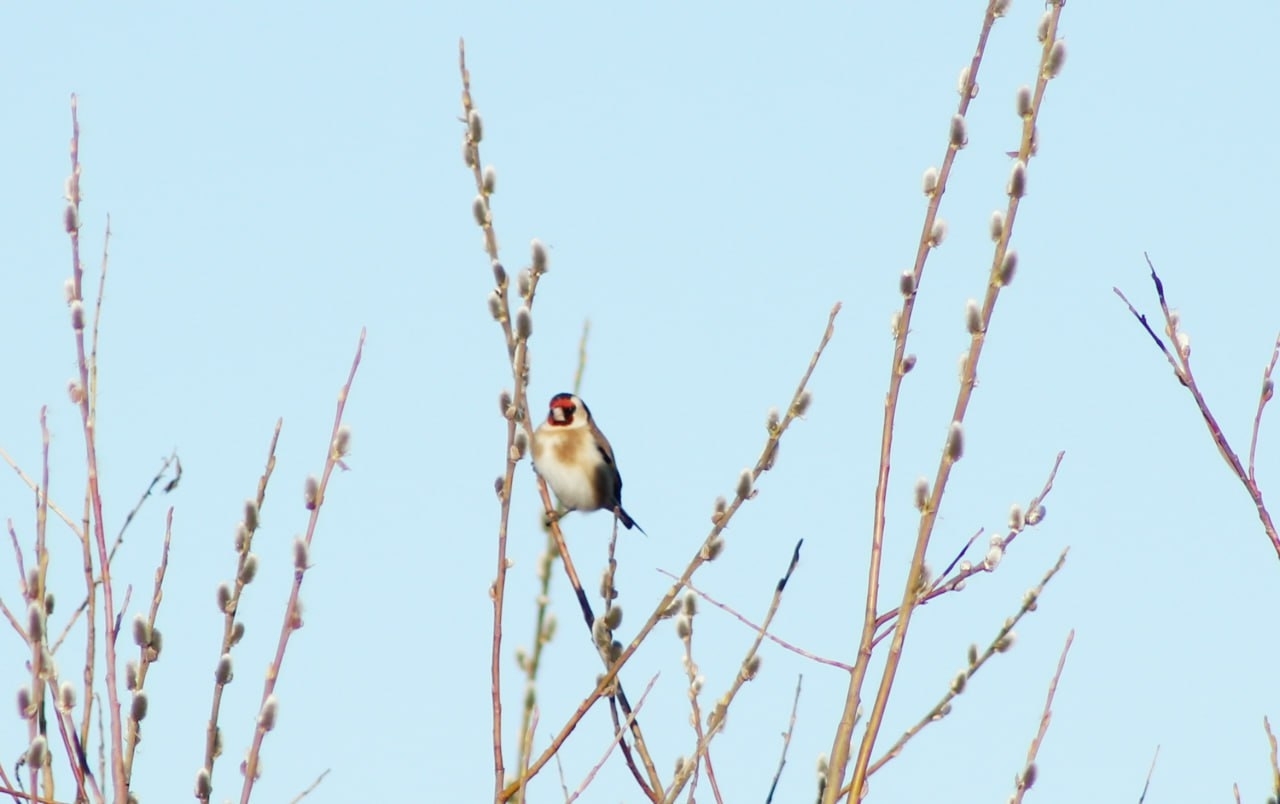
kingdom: Animalia
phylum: Chordata
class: Aves
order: Passeriformes
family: Fringillidae
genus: Carduelis
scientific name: Carduelis carduelis
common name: European goldfinch
